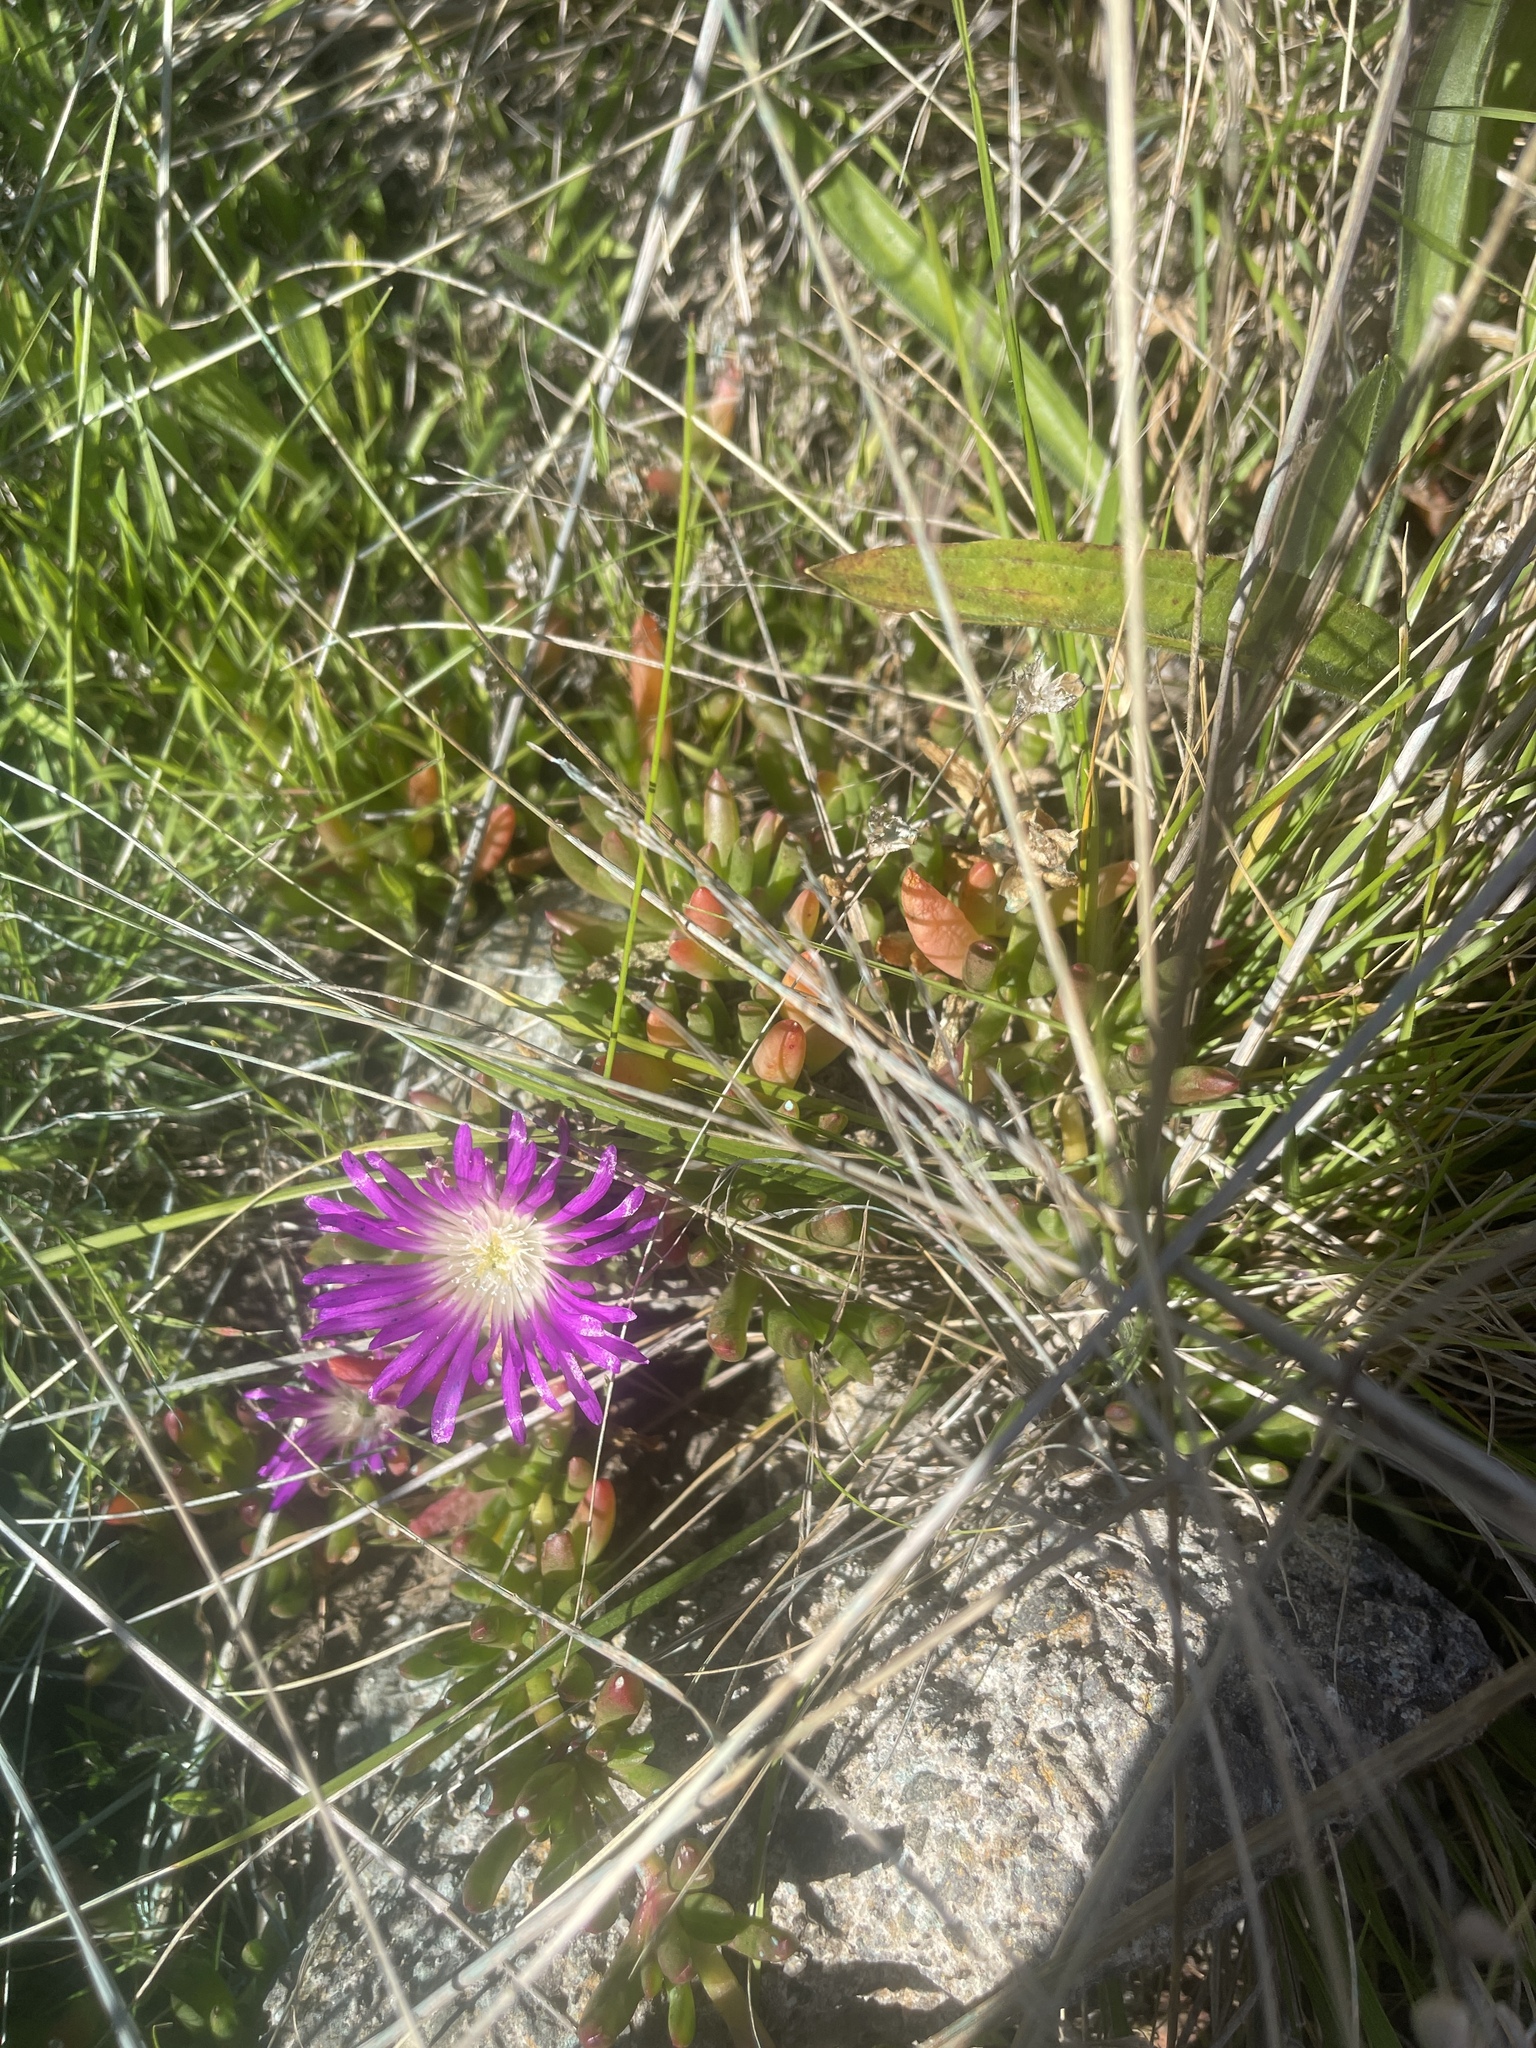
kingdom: Plantae
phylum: Tracheophyta
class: Magnoliopsida
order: Caryophyllales
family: Aizoaceae
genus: Disphyma
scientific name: Disphyma clavellatum
